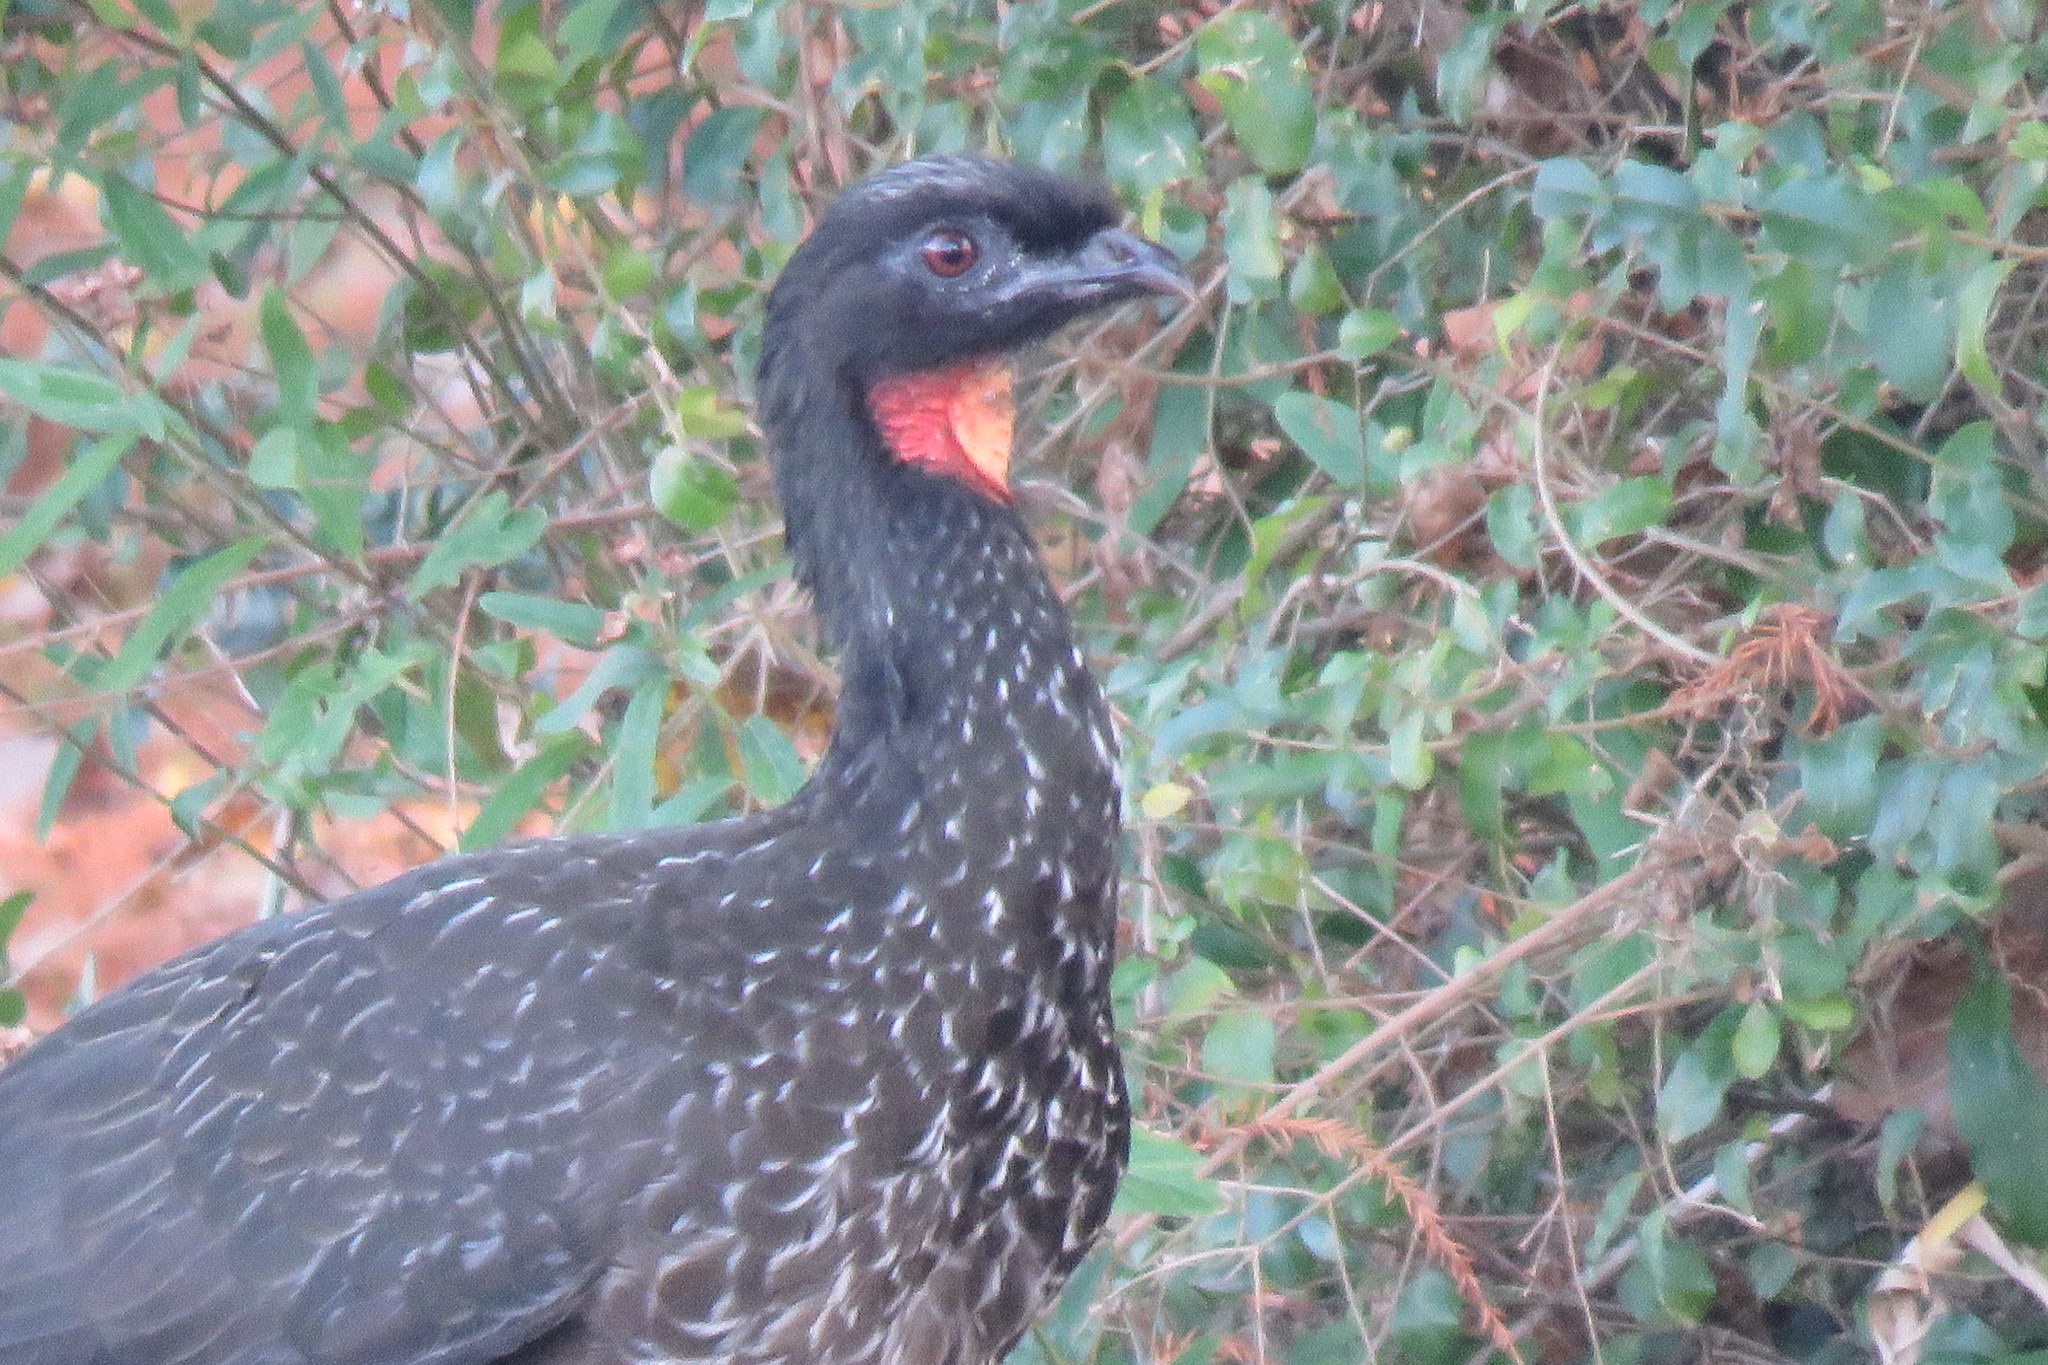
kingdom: Animalia
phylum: Chordata
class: Aves
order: Galliformes
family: Cracidae
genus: Penelope
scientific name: Penelope obscura
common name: Dusky-legged guan
